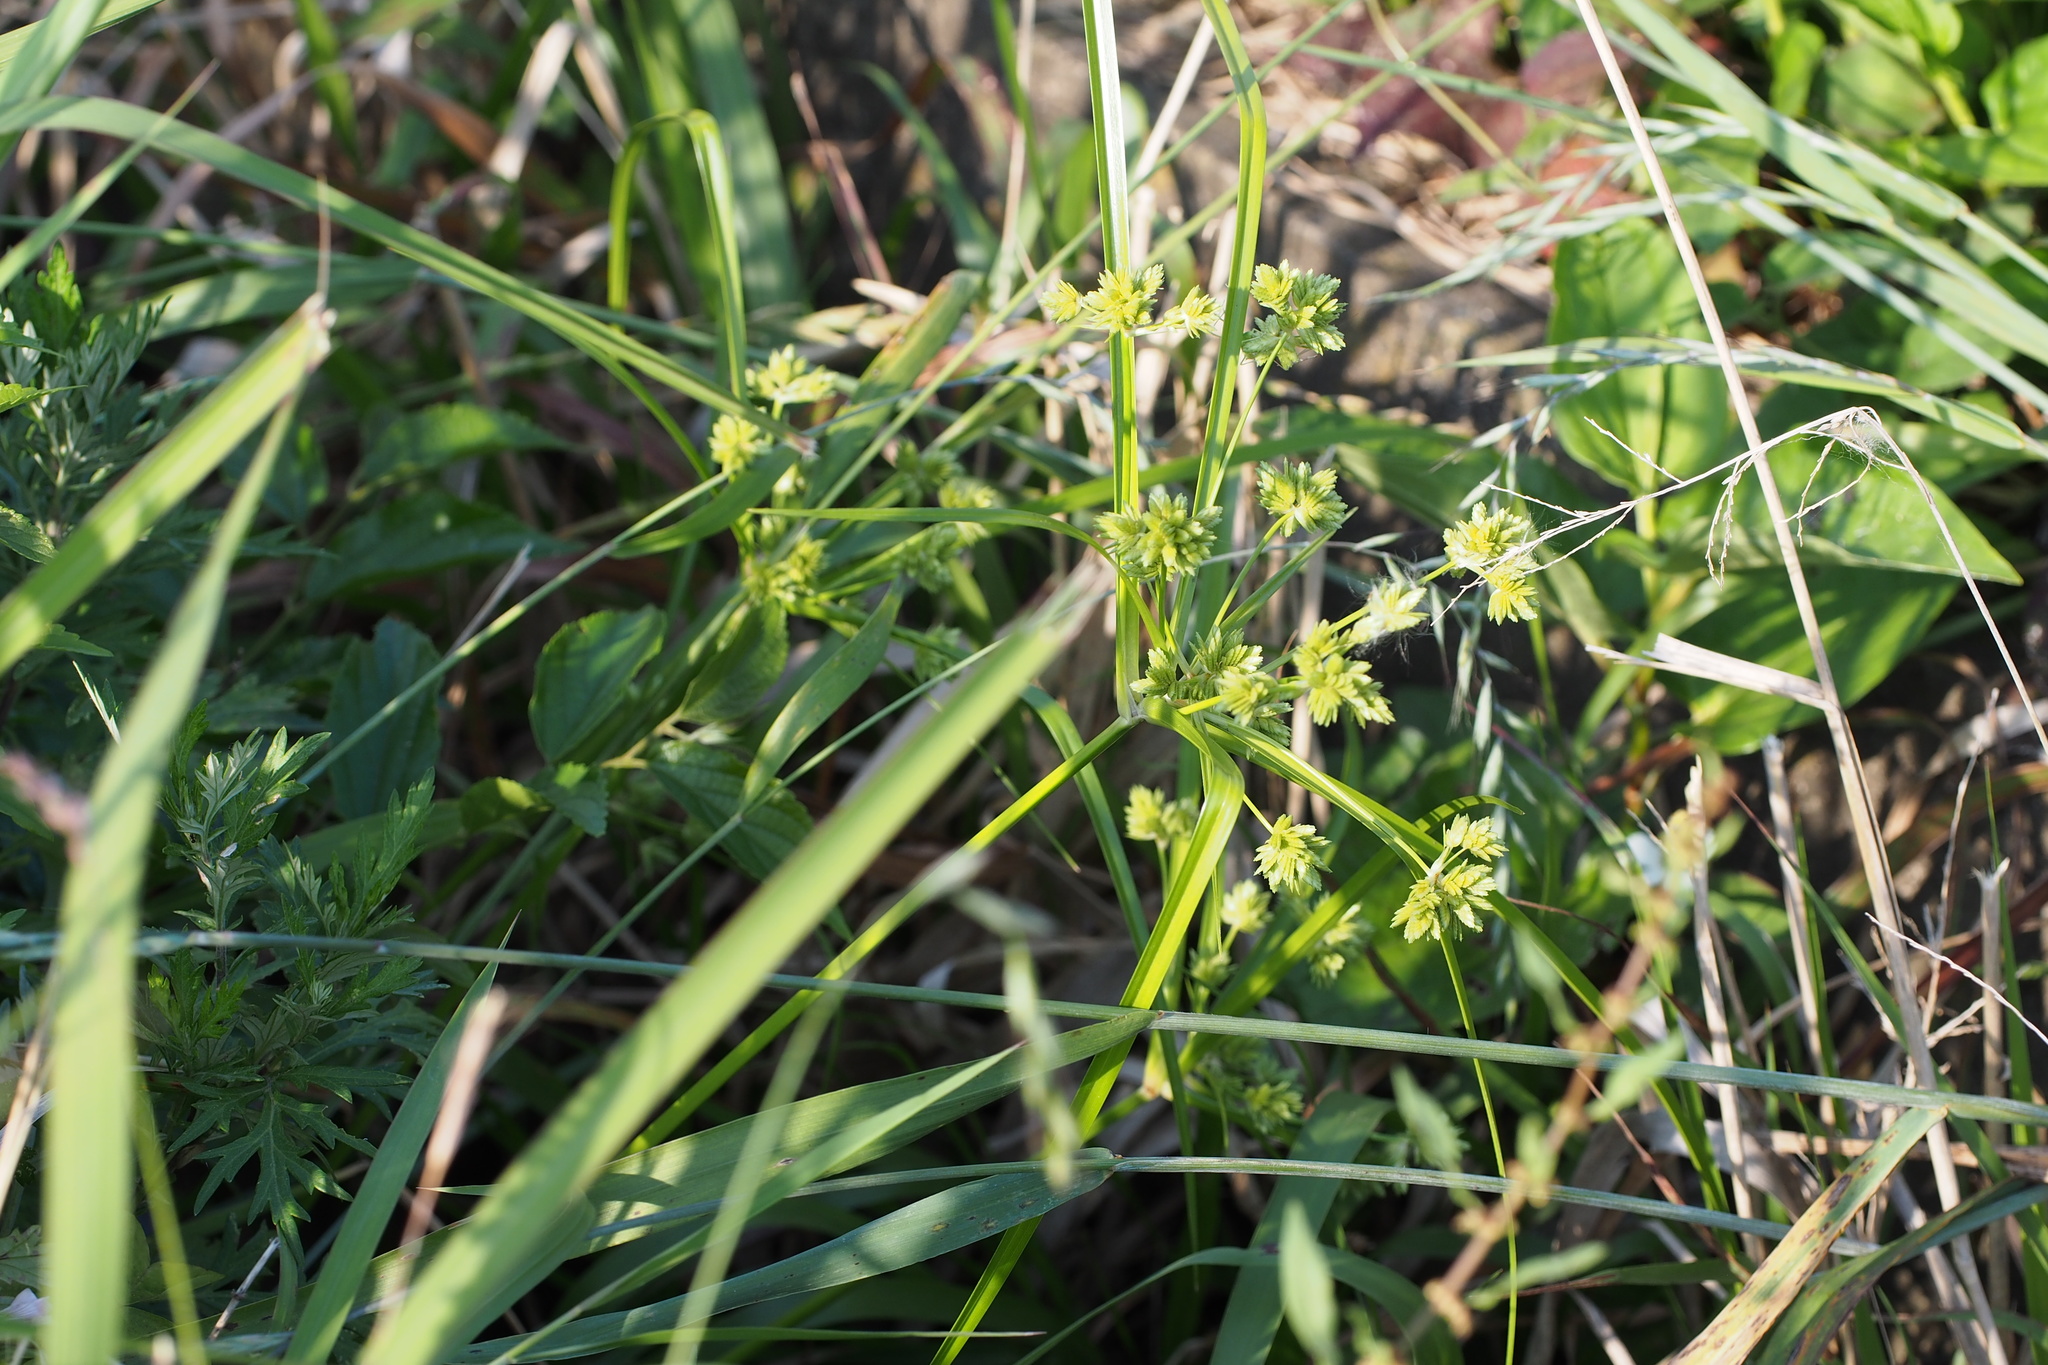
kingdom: Plantae
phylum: Tracheophyta
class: Liliopsida
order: Poales
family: Cyperaceae
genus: Cyperus
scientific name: Cyperus eragrostis
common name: Tall flatsedge
